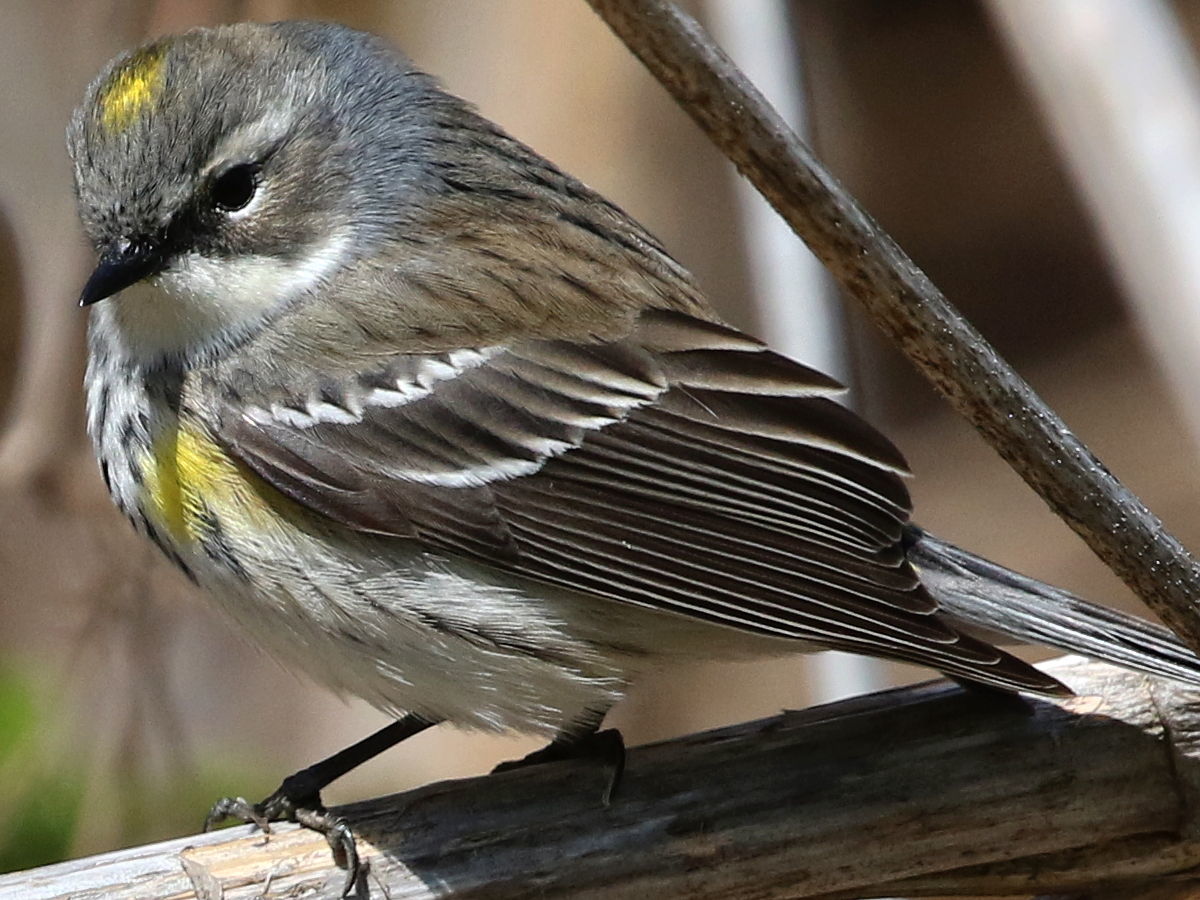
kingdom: Animalia
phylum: Chordata
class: Aves
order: Passeriformes
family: Parulidae
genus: Setophaga
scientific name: Setophaga coronata
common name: Myrtle warbler
